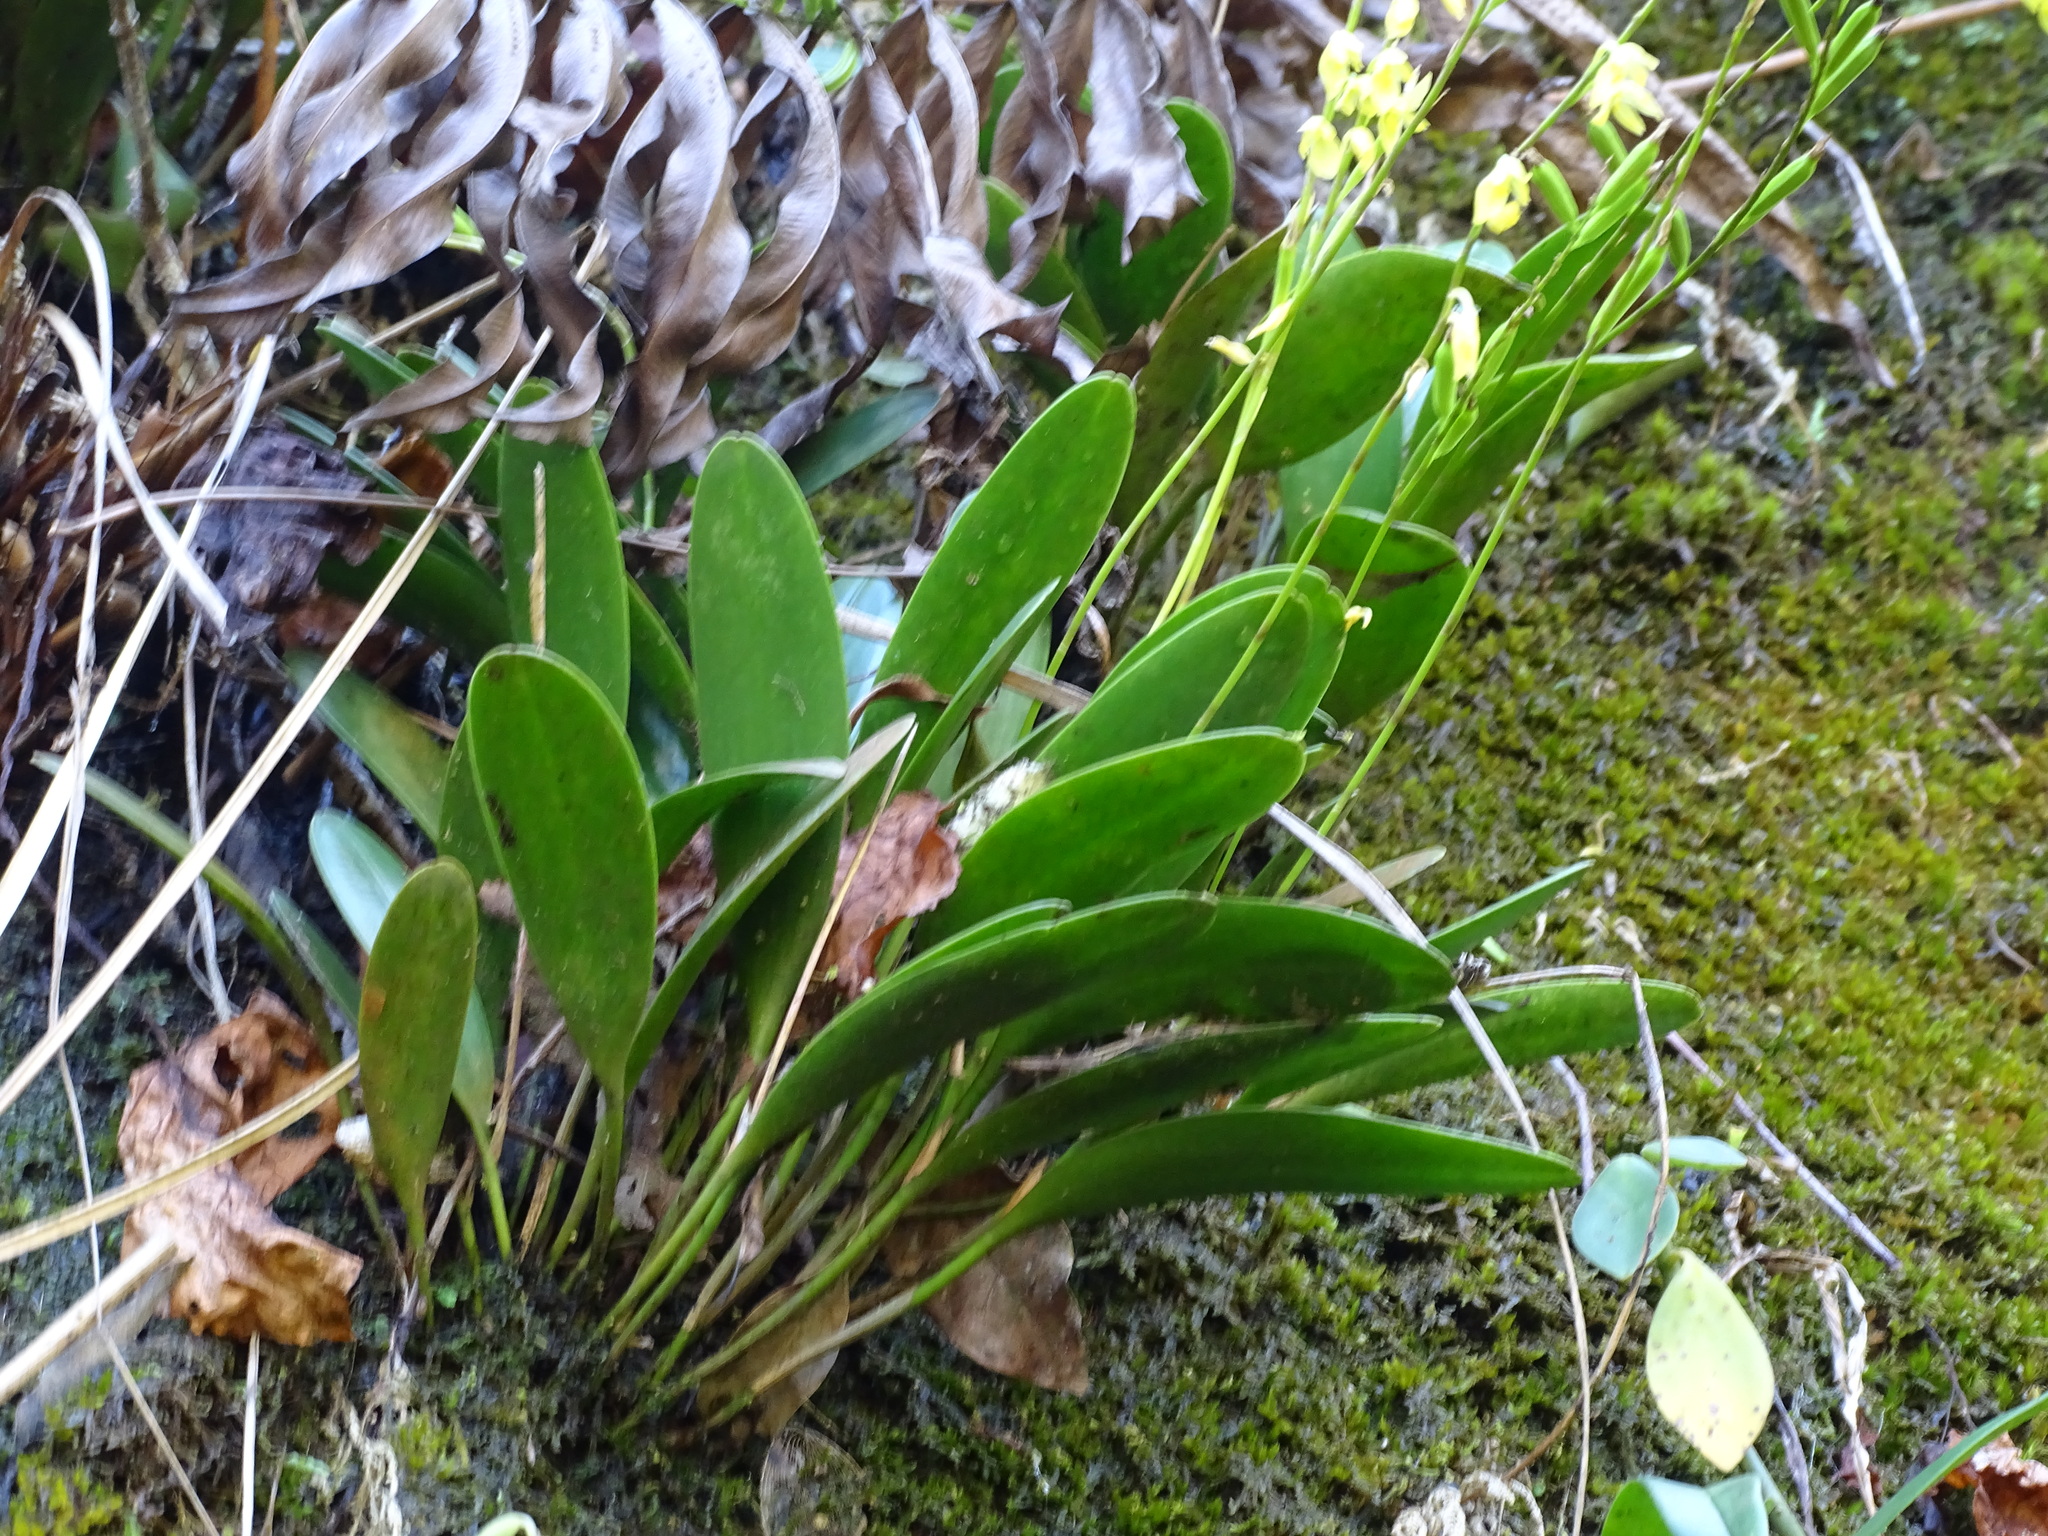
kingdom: Plantae
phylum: Tracheophyta
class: Liliopsida
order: Asparagales
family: Orchidaceae
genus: Pleurothallis
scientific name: Pleurothallis quadrifida
